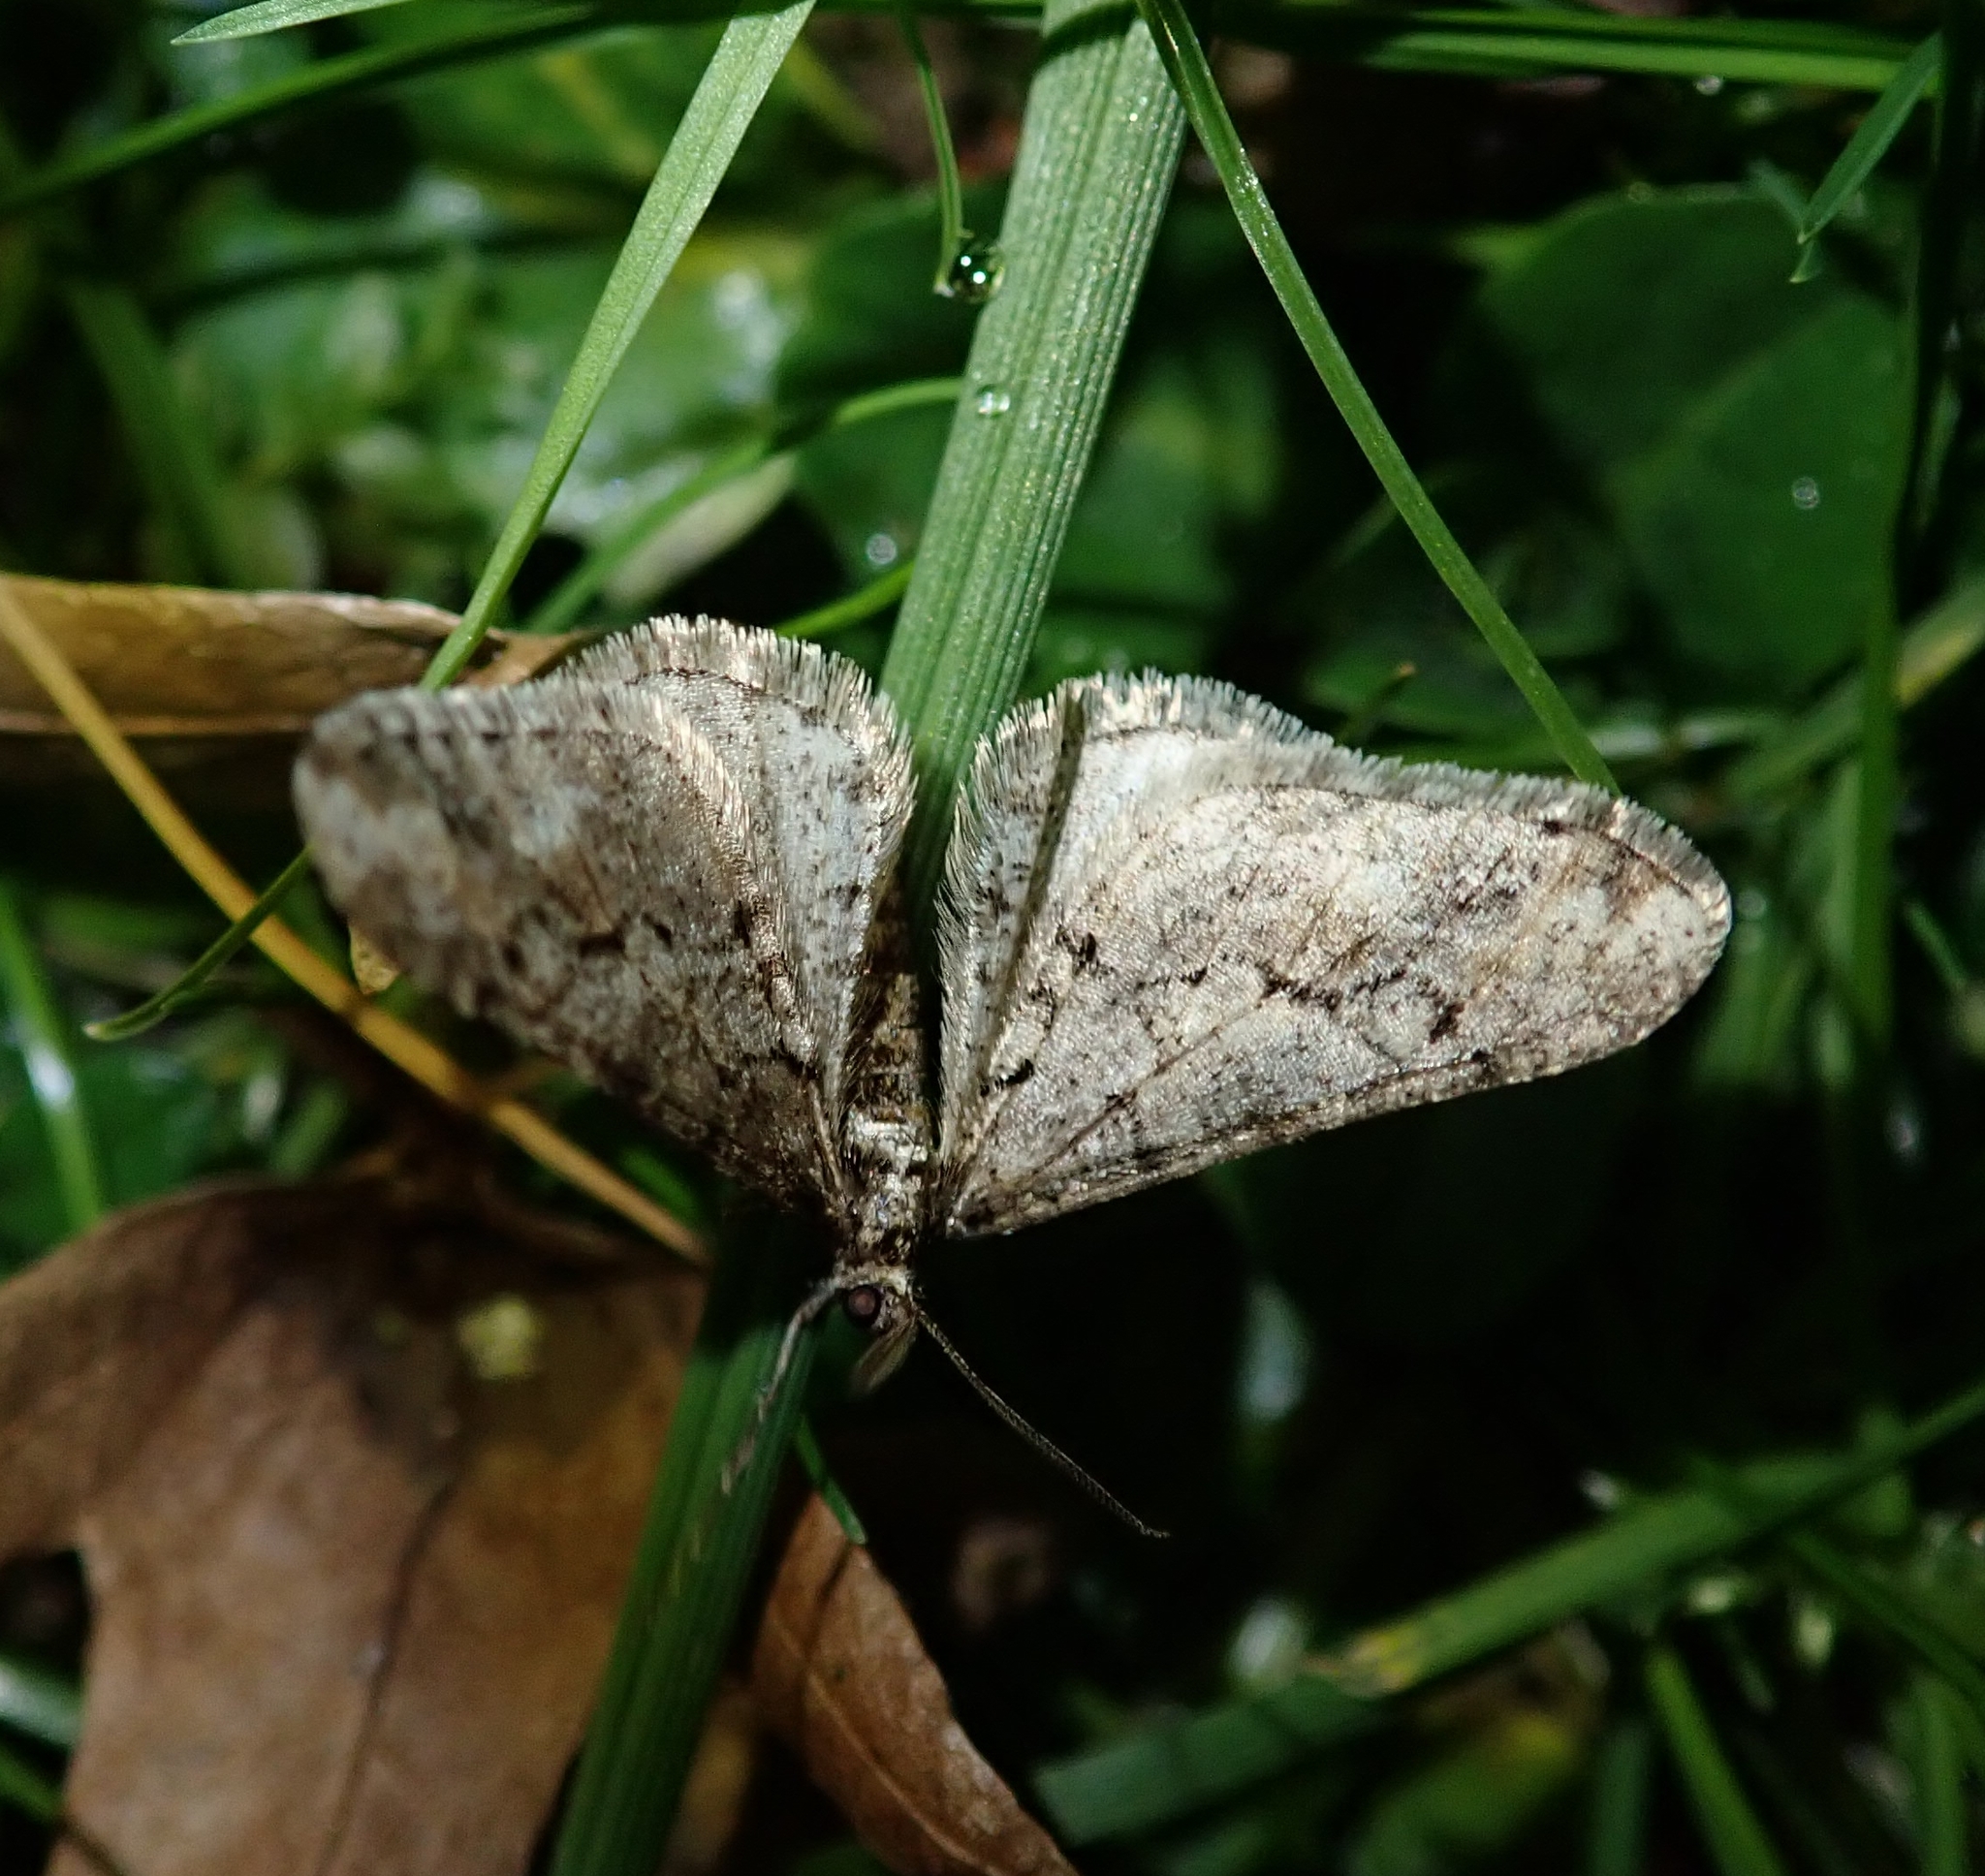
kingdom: Animalia
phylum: Arthropoda
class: Insecta
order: Lepidoptera
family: Geometridae
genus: Agriopis
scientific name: Agriopis leucophaearia
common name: Spring usher
